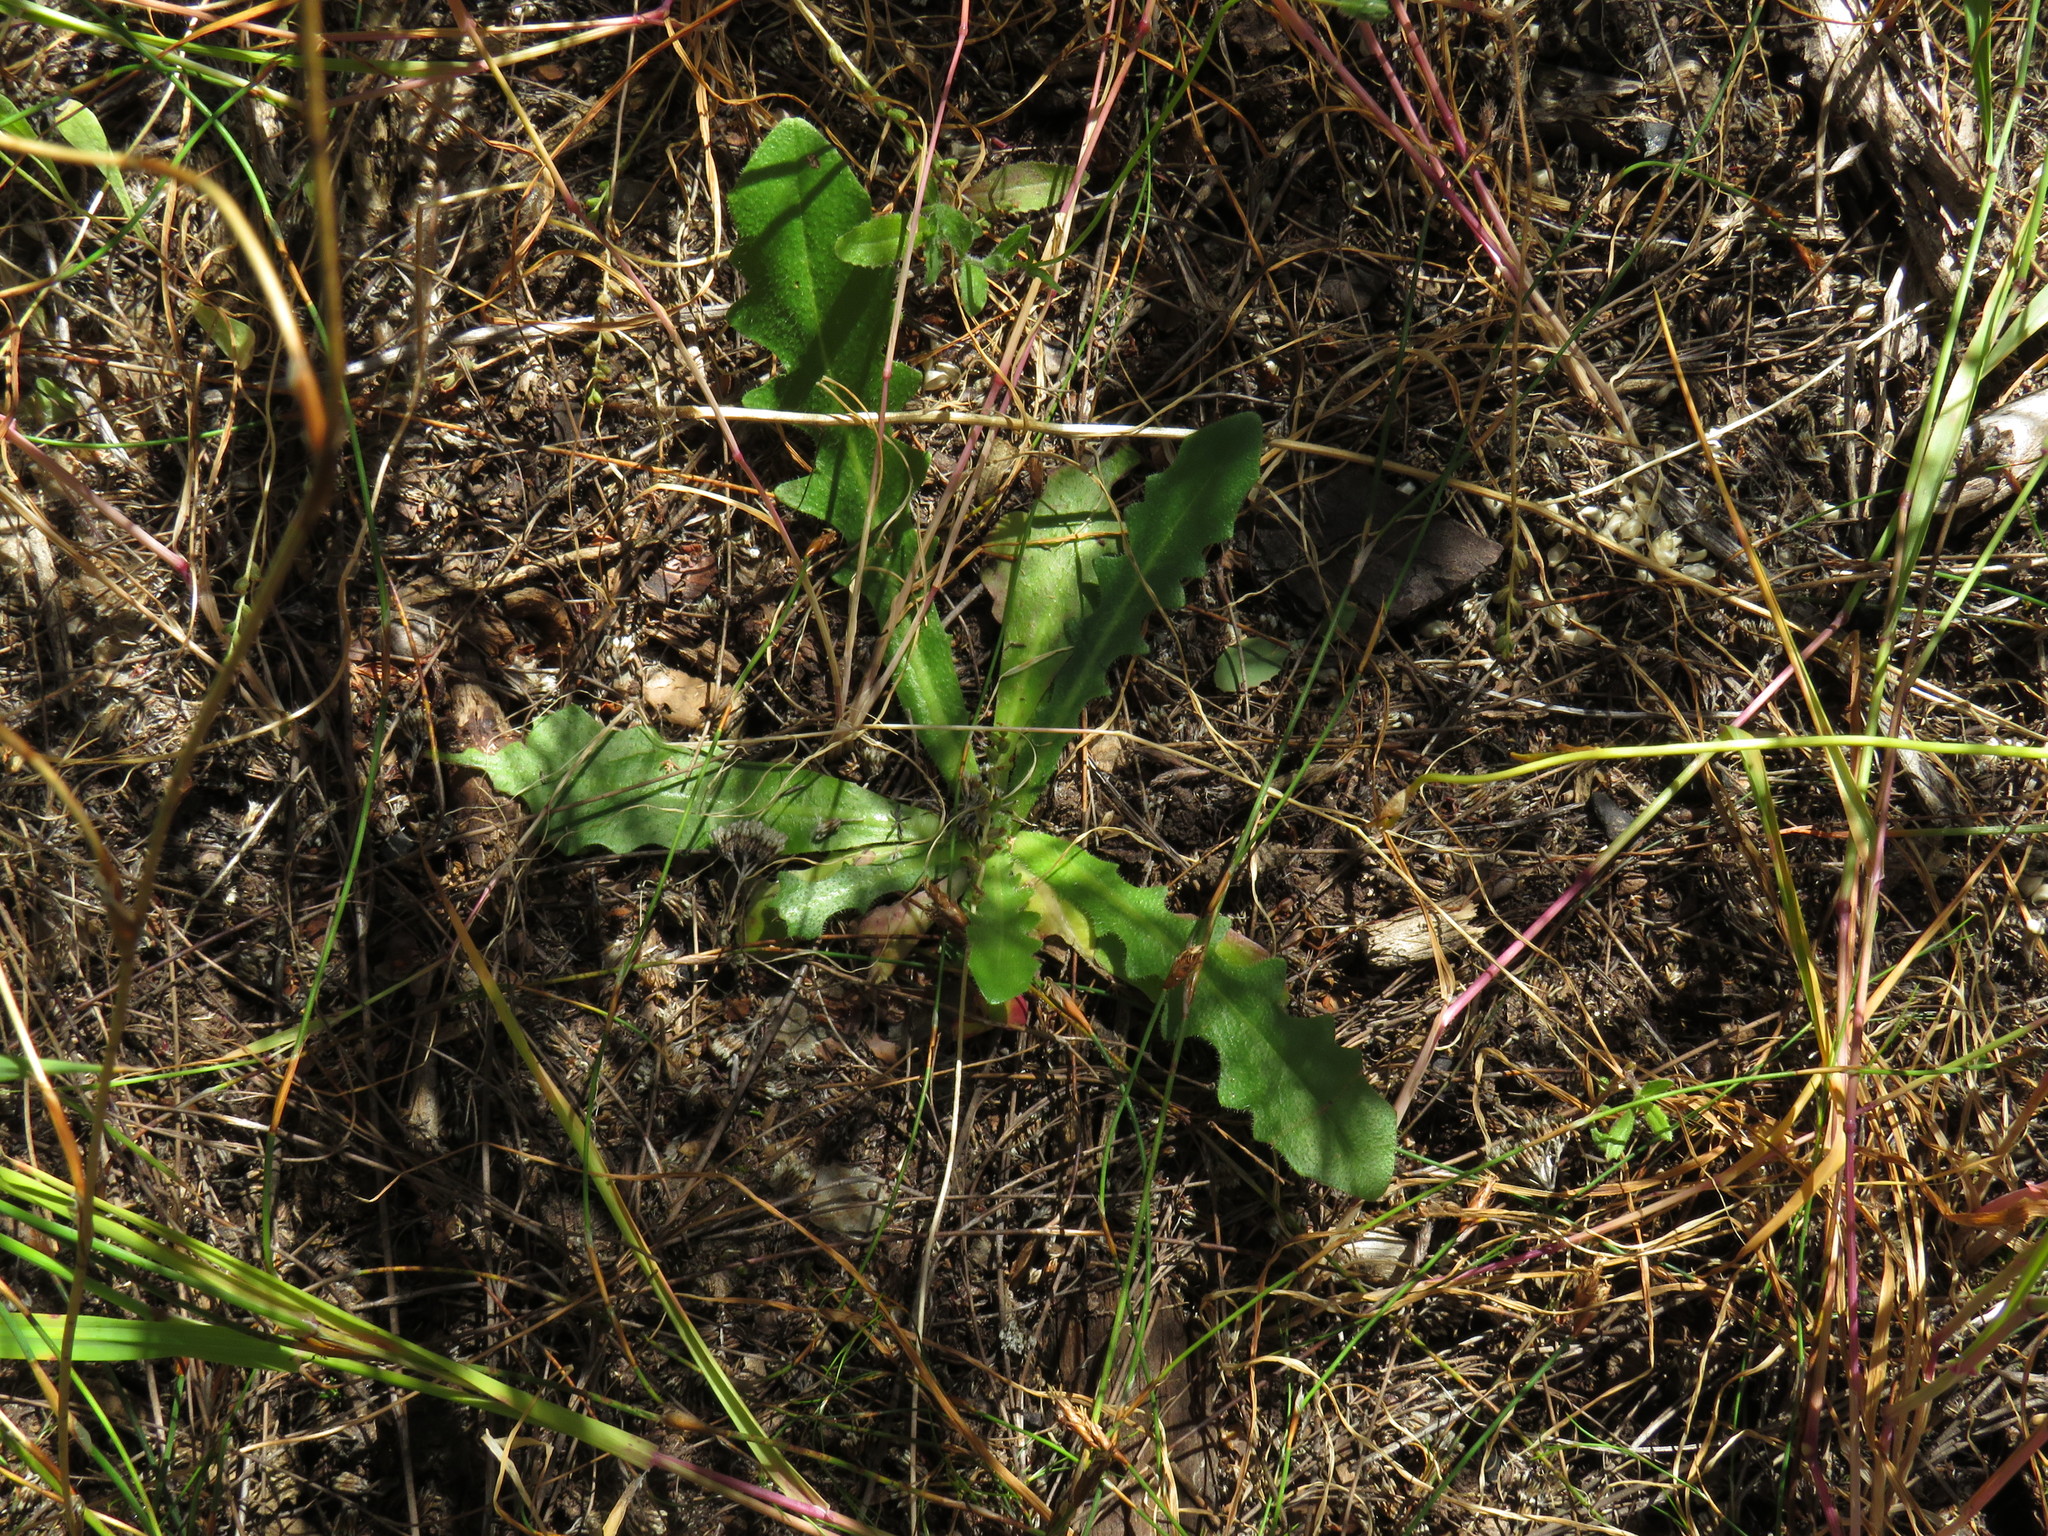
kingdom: Plantae
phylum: Tracheophyta
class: Magnoliopsida
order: Asterales
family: Asteraceae
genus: Hypochaeris
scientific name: Hypochaeris radicata
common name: Flatweed
